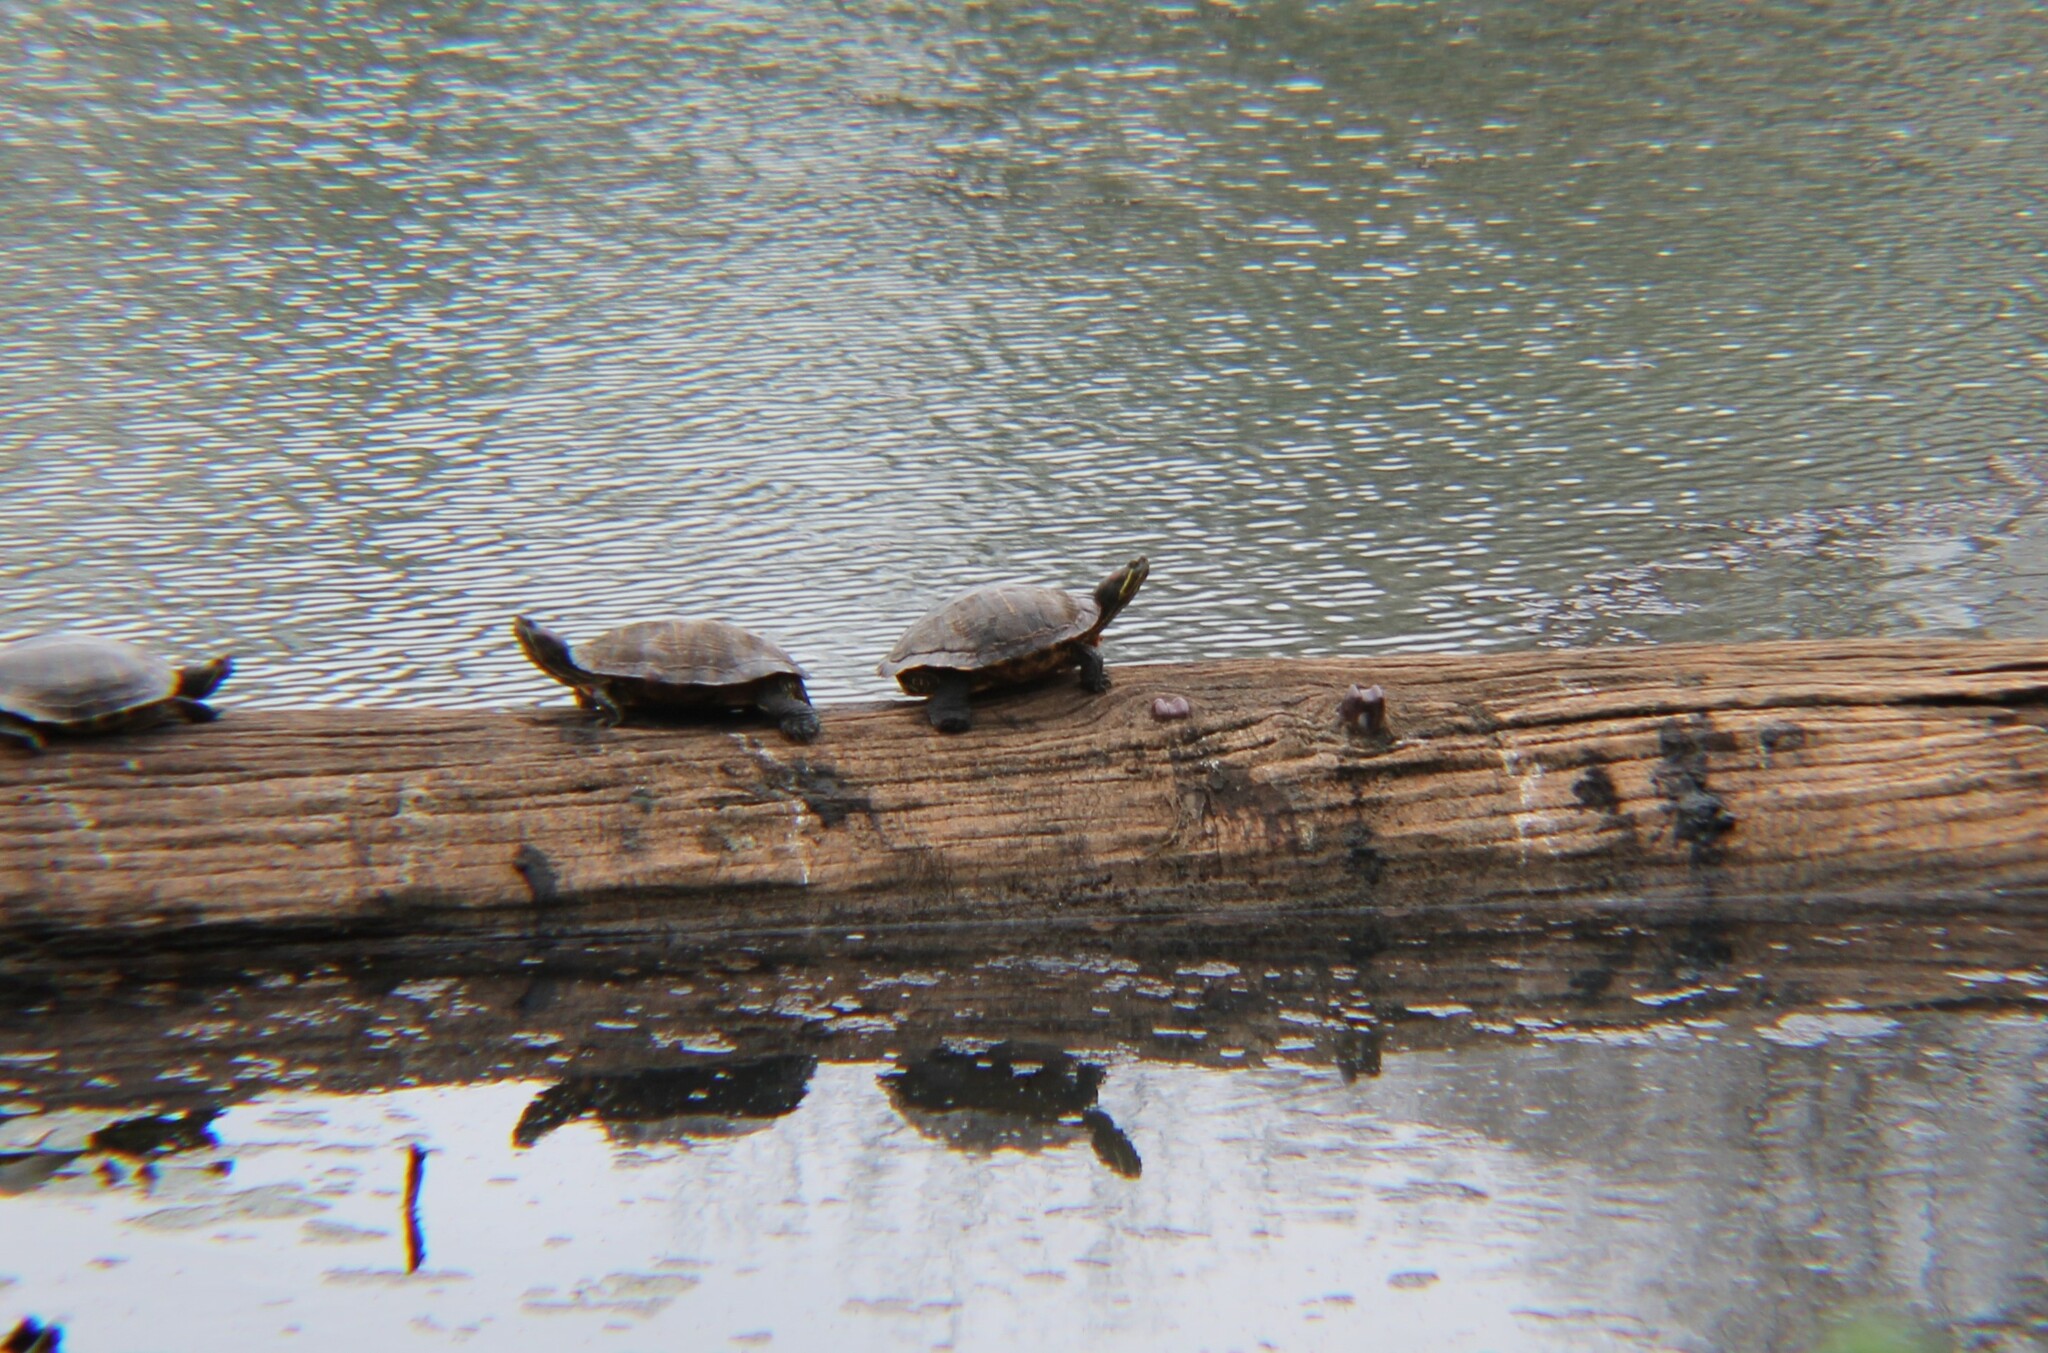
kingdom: Animalia
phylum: Chordata
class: Testudines
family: Emydidae
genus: Trachemys
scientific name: Trachemys scripta
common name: Slider
